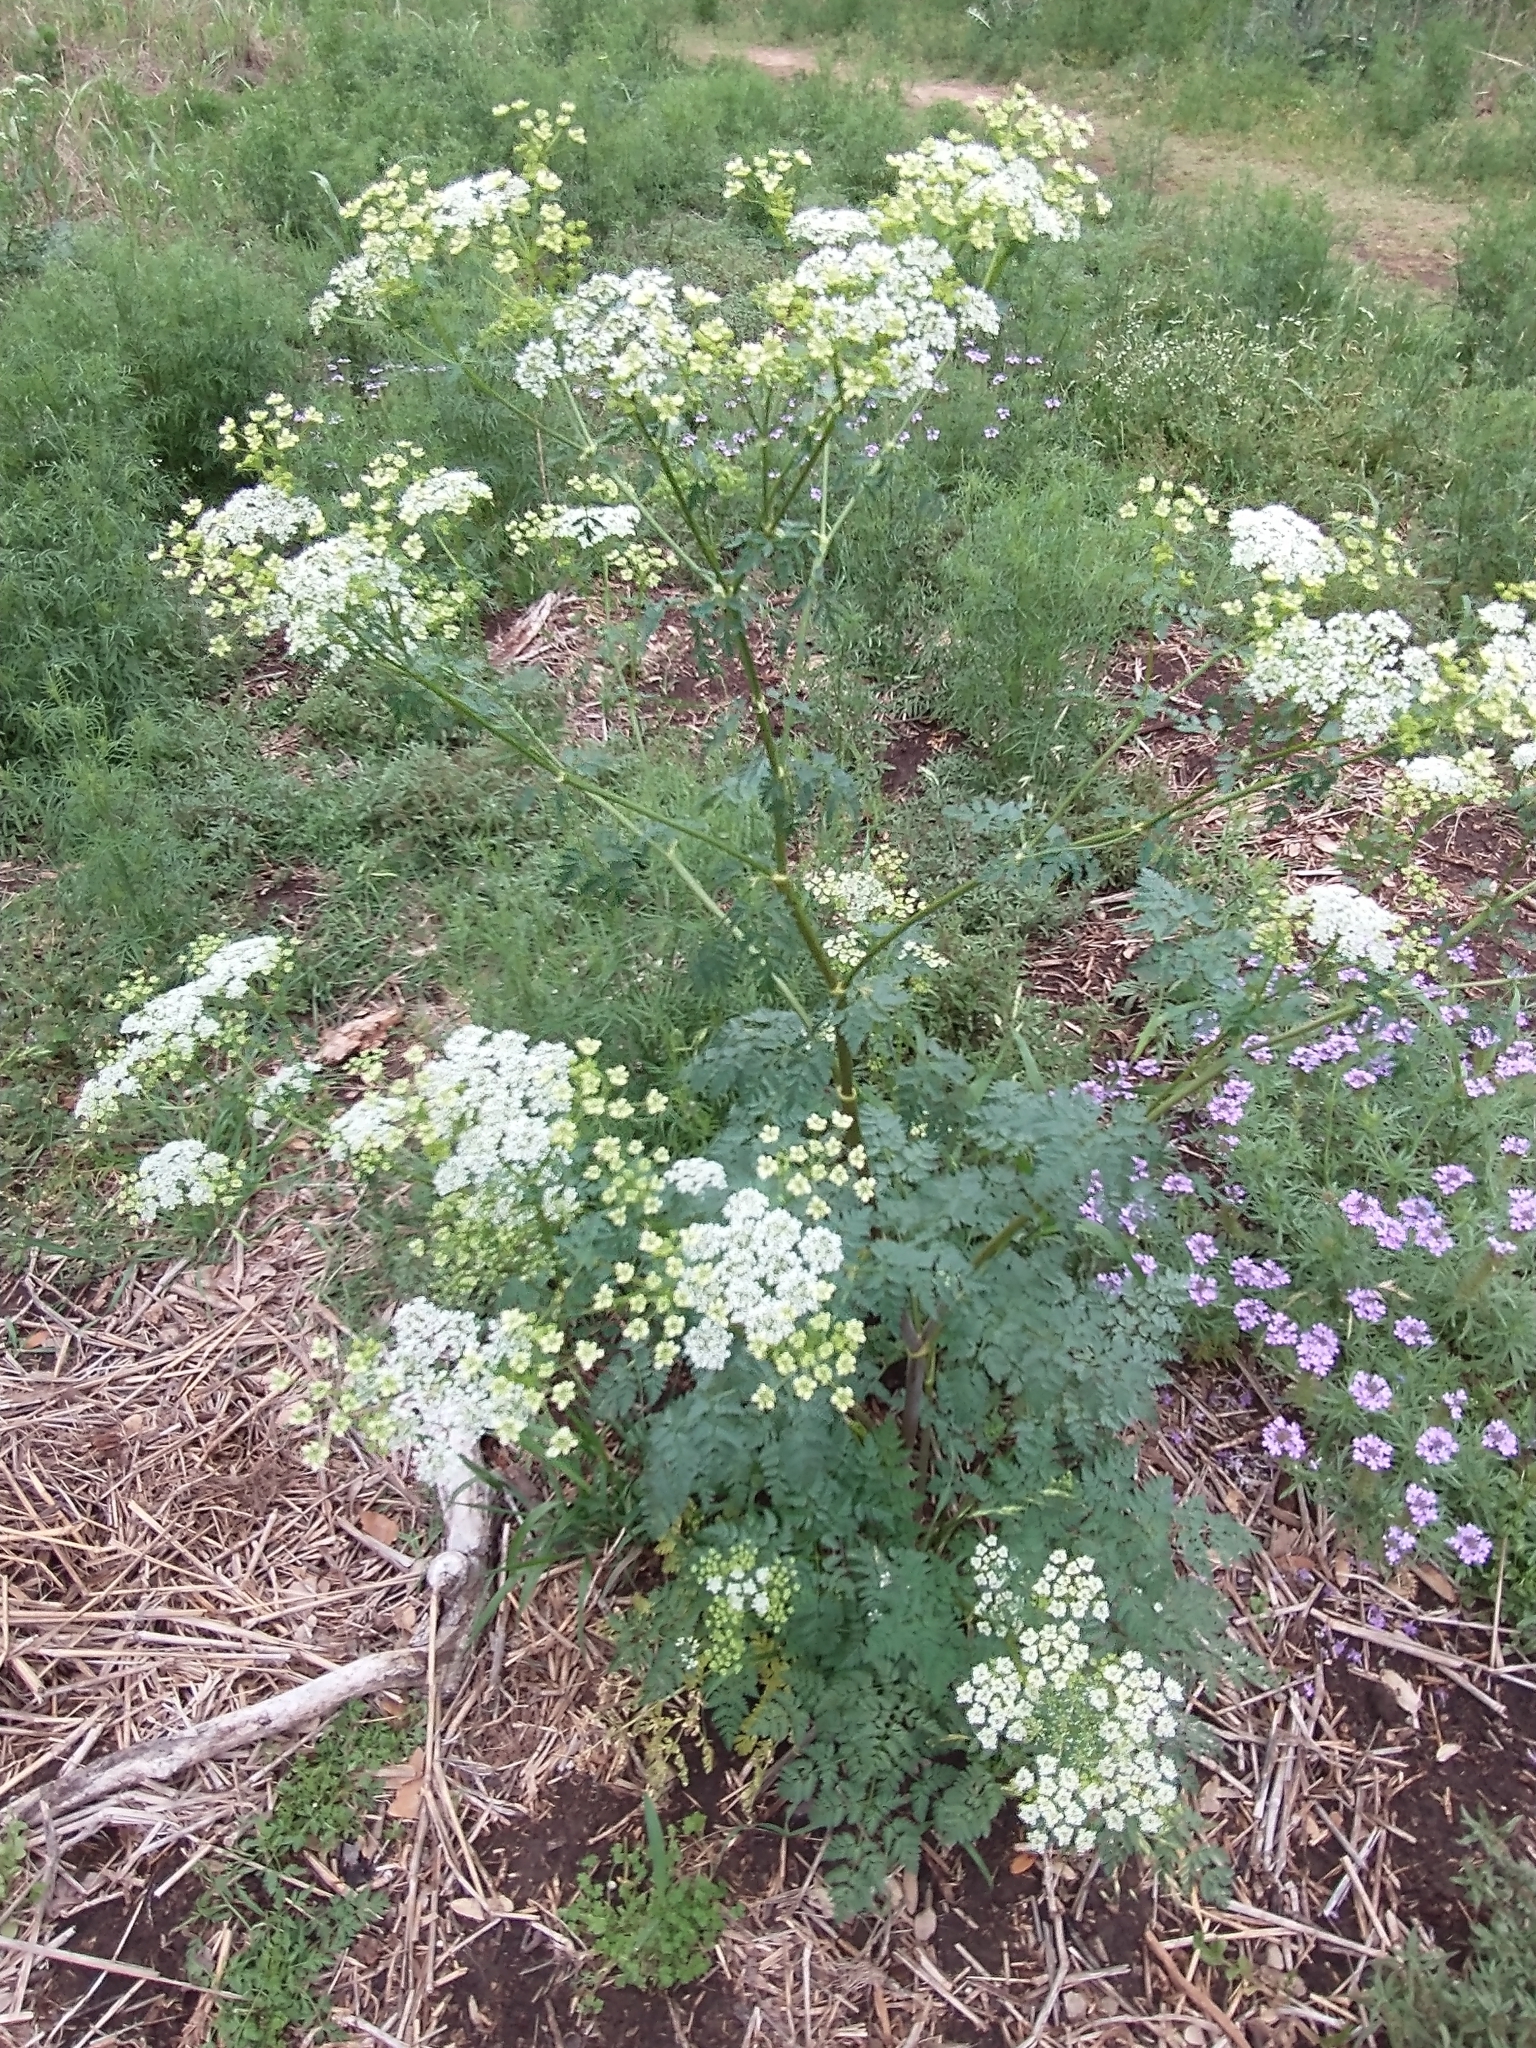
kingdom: Plantae
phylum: Tracheophyta
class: Magnoliopsida
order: Apiales
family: Apiaceae
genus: Conium
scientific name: Conium maculatum
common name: Hemlock
